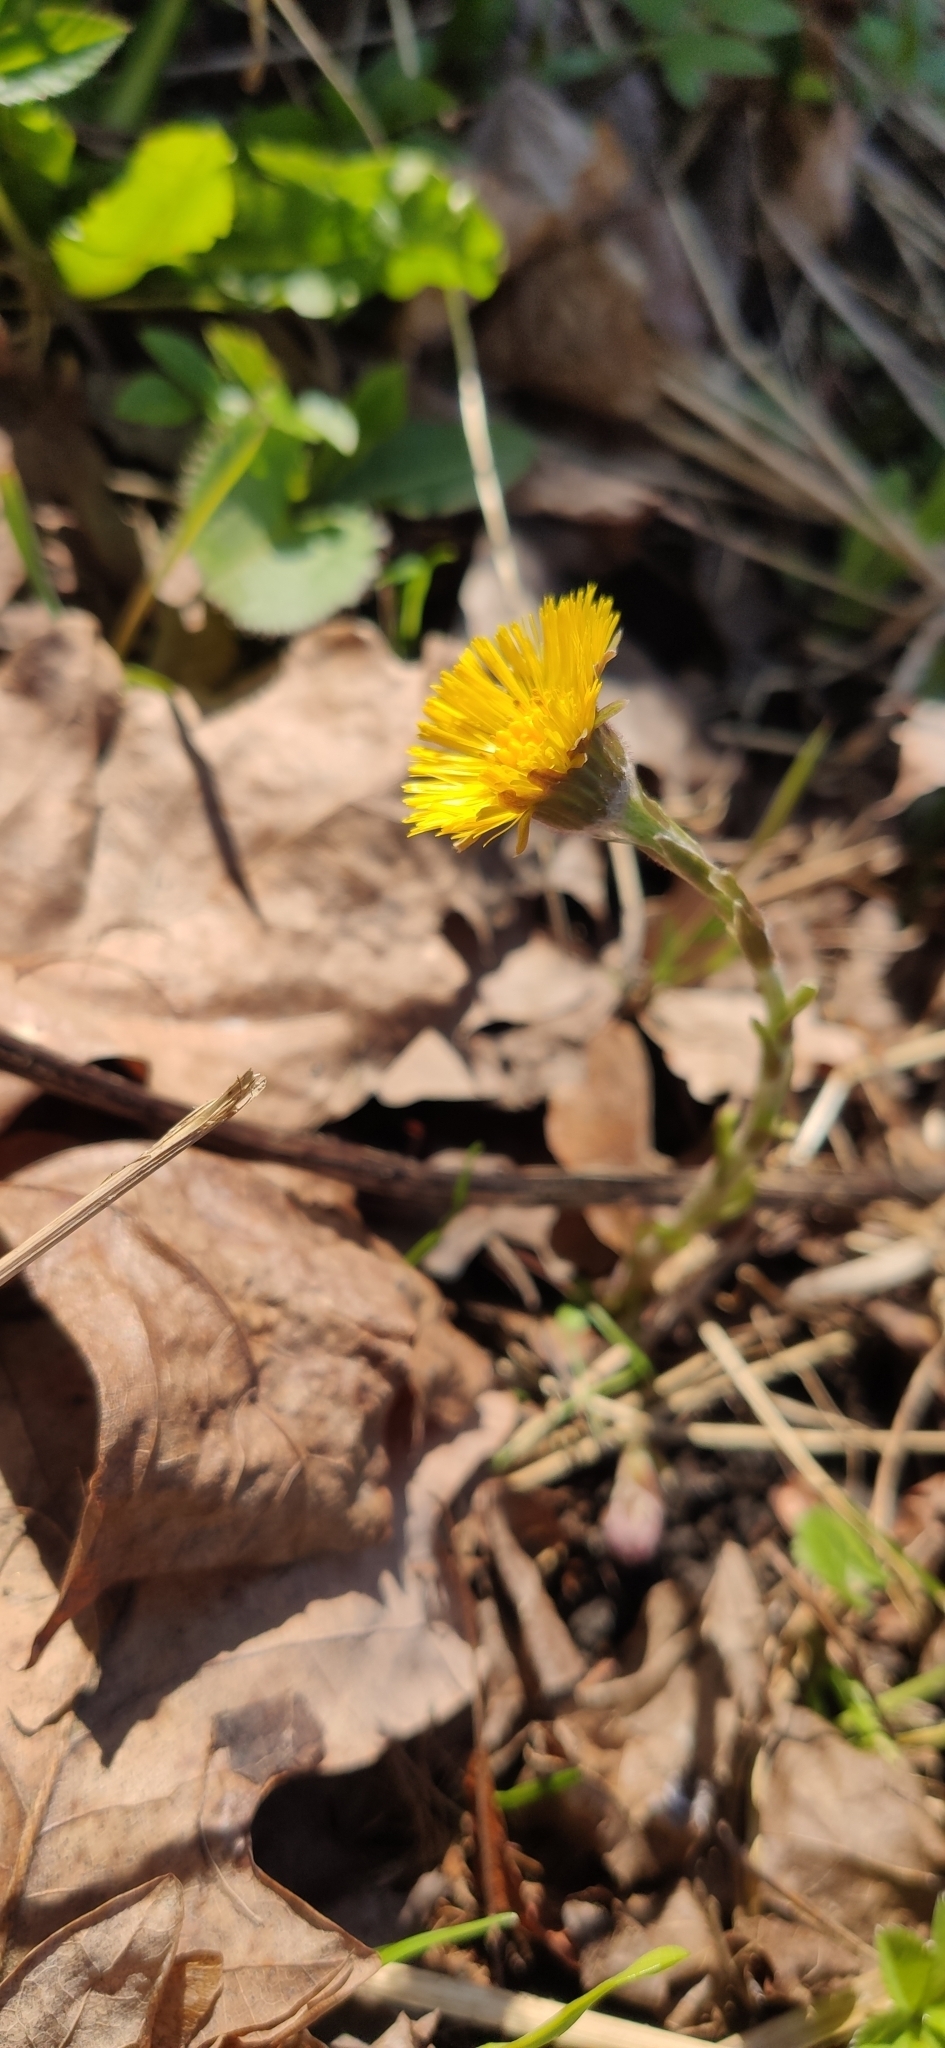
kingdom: Plantae
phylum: Tracheophyta
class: Magnoliopsida
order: Asterales
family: Asteraceae
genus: Tussilago
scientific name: Tussilago farfara
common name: Coltsfoot
